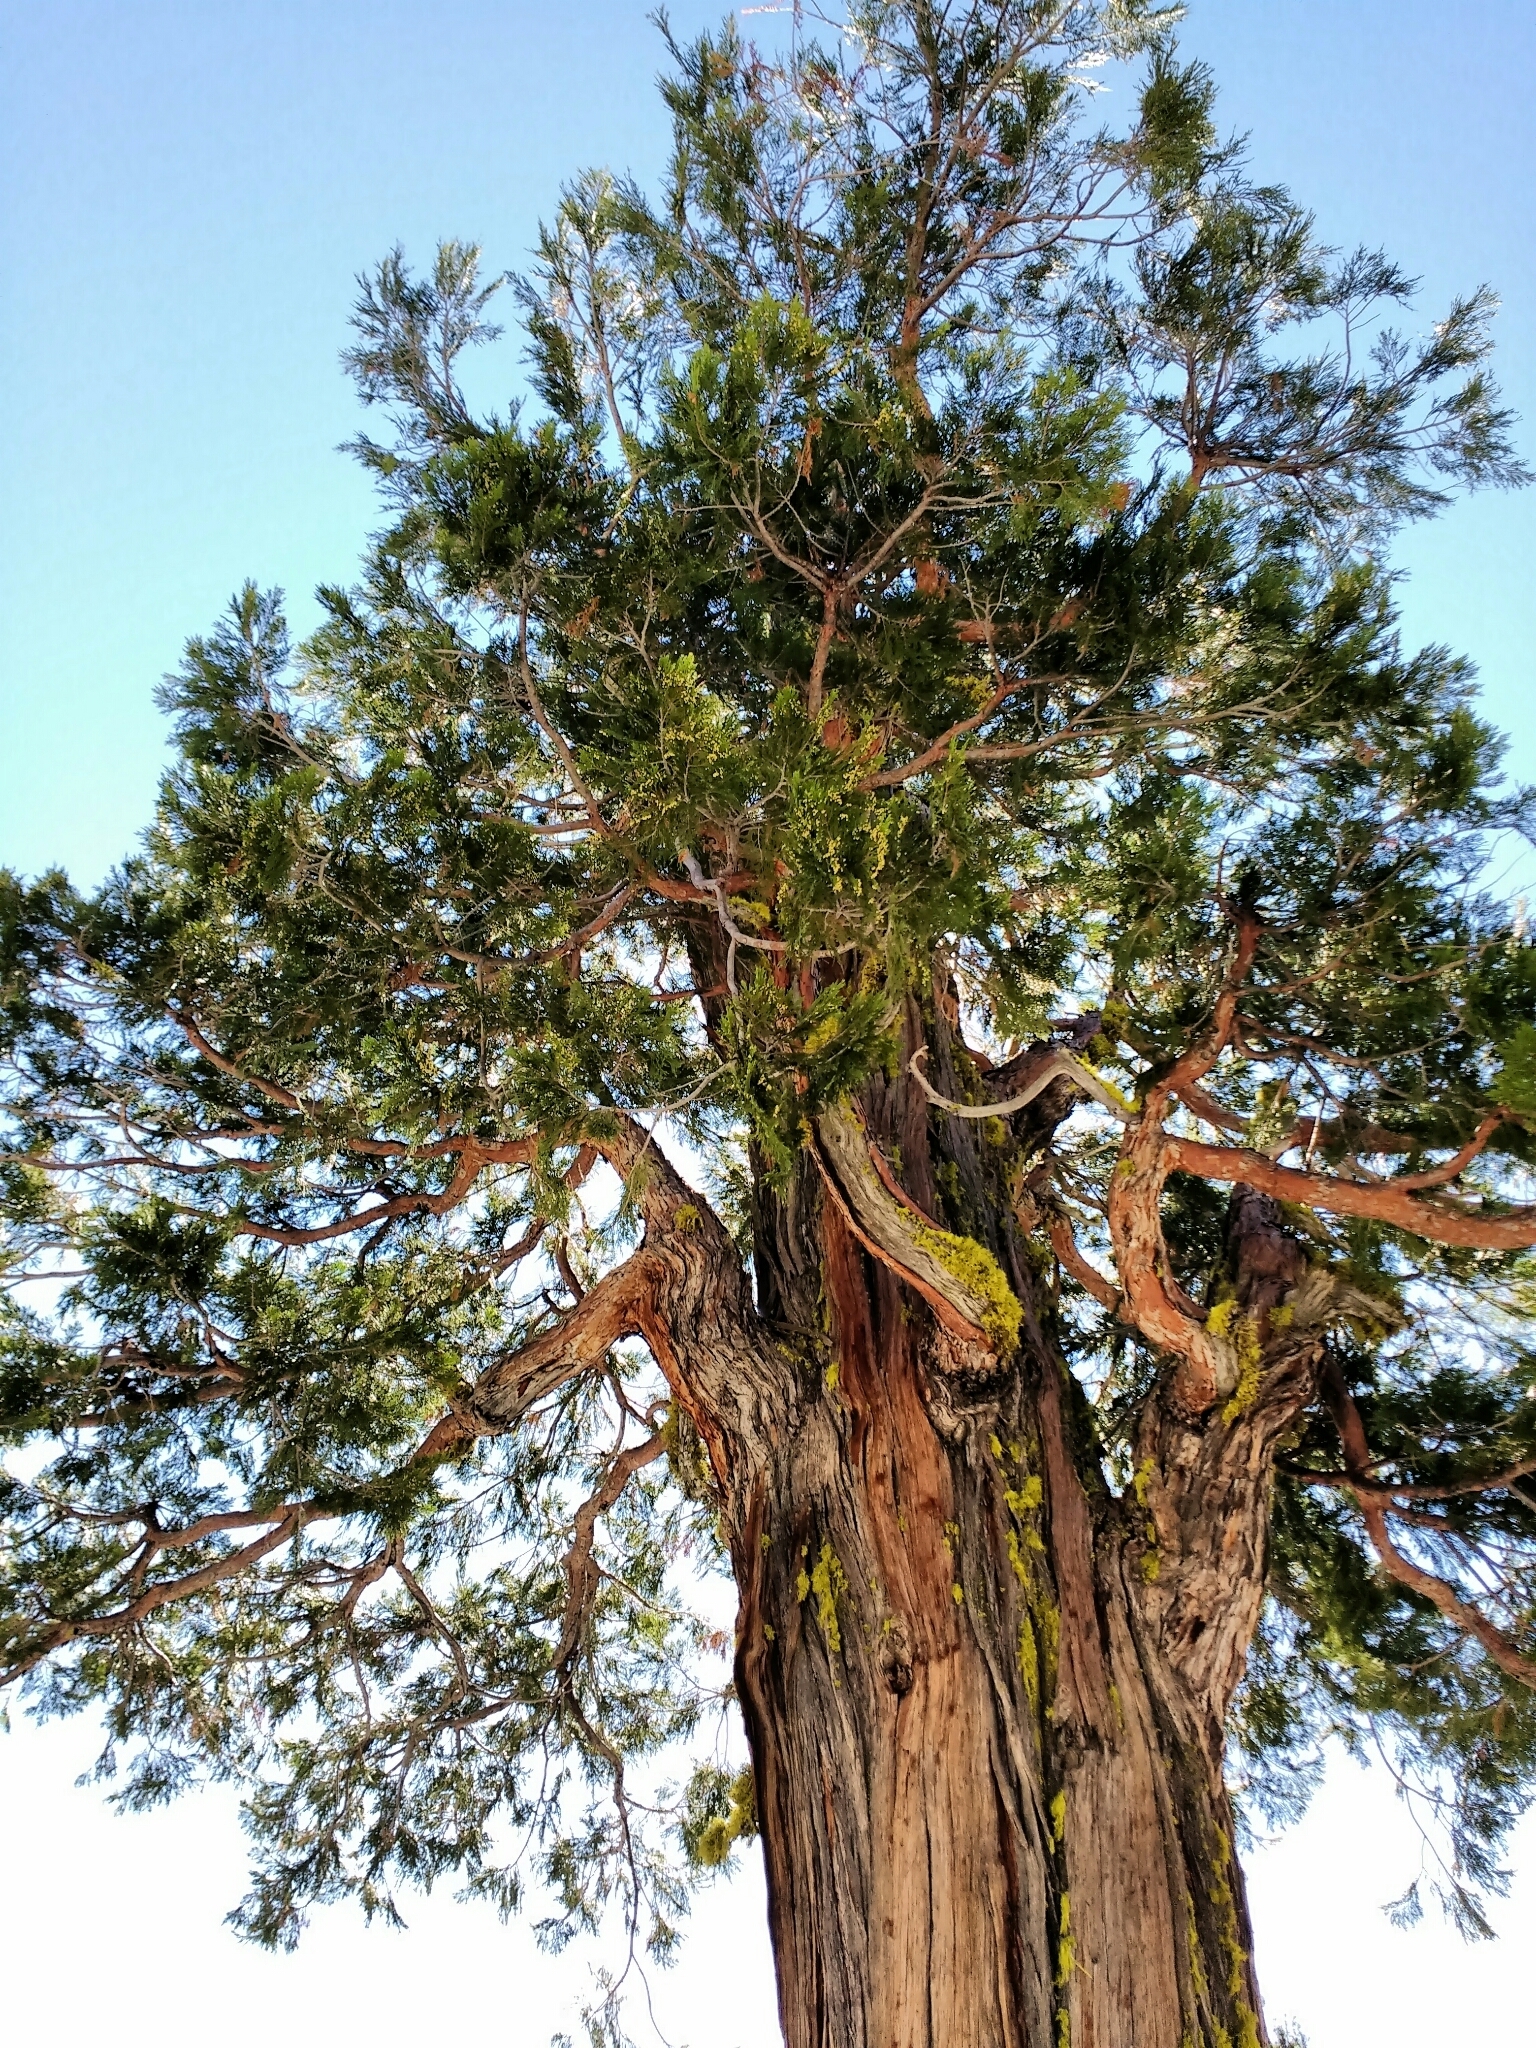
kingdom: Plantae
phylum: Tracheophyta
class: Pinopsida
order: Pinales
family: Cupressaceae
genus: Calocedrus
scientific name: Calocedrus decurrens
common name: Californian incense-cedar
